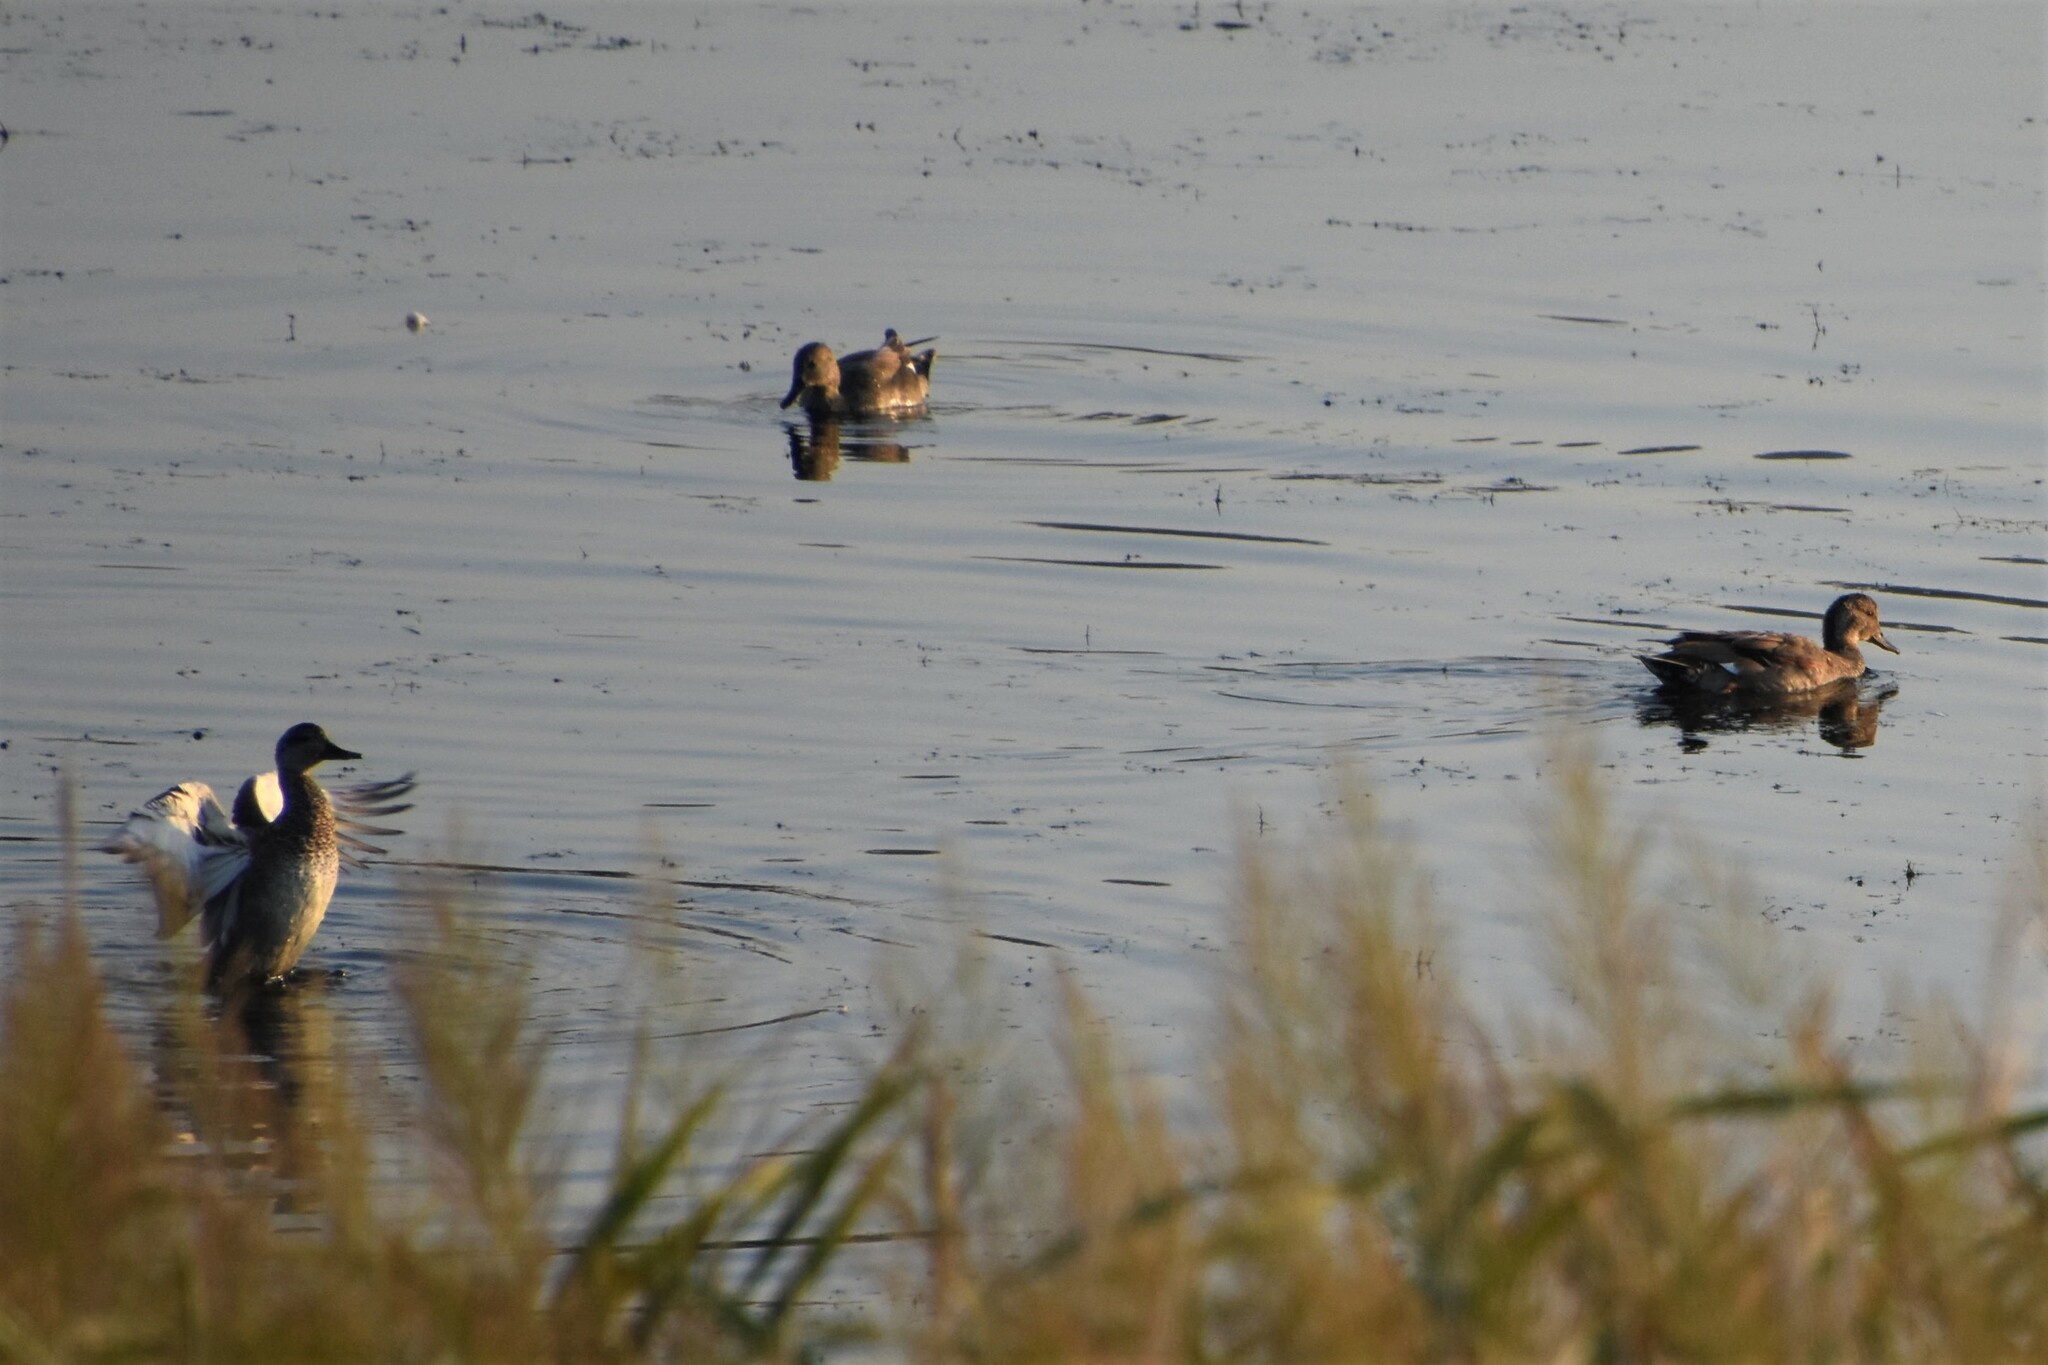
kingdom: Animalia
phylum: Chordata
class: Aves
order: Anseriformes
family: Anatidae
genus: Mareca
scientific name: Mareca strepera
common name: Gadwall
